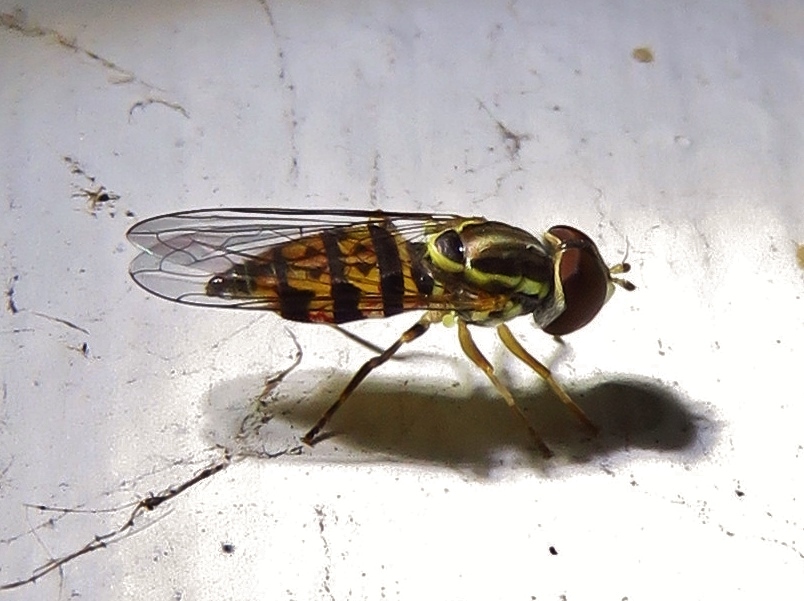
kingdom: Animalia
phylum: Arthropoda
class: Insecta
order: Diptera
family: Syrphidae
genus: Toxomerus
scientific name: Toxomerus geminatus
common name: Eastern calligrapher
